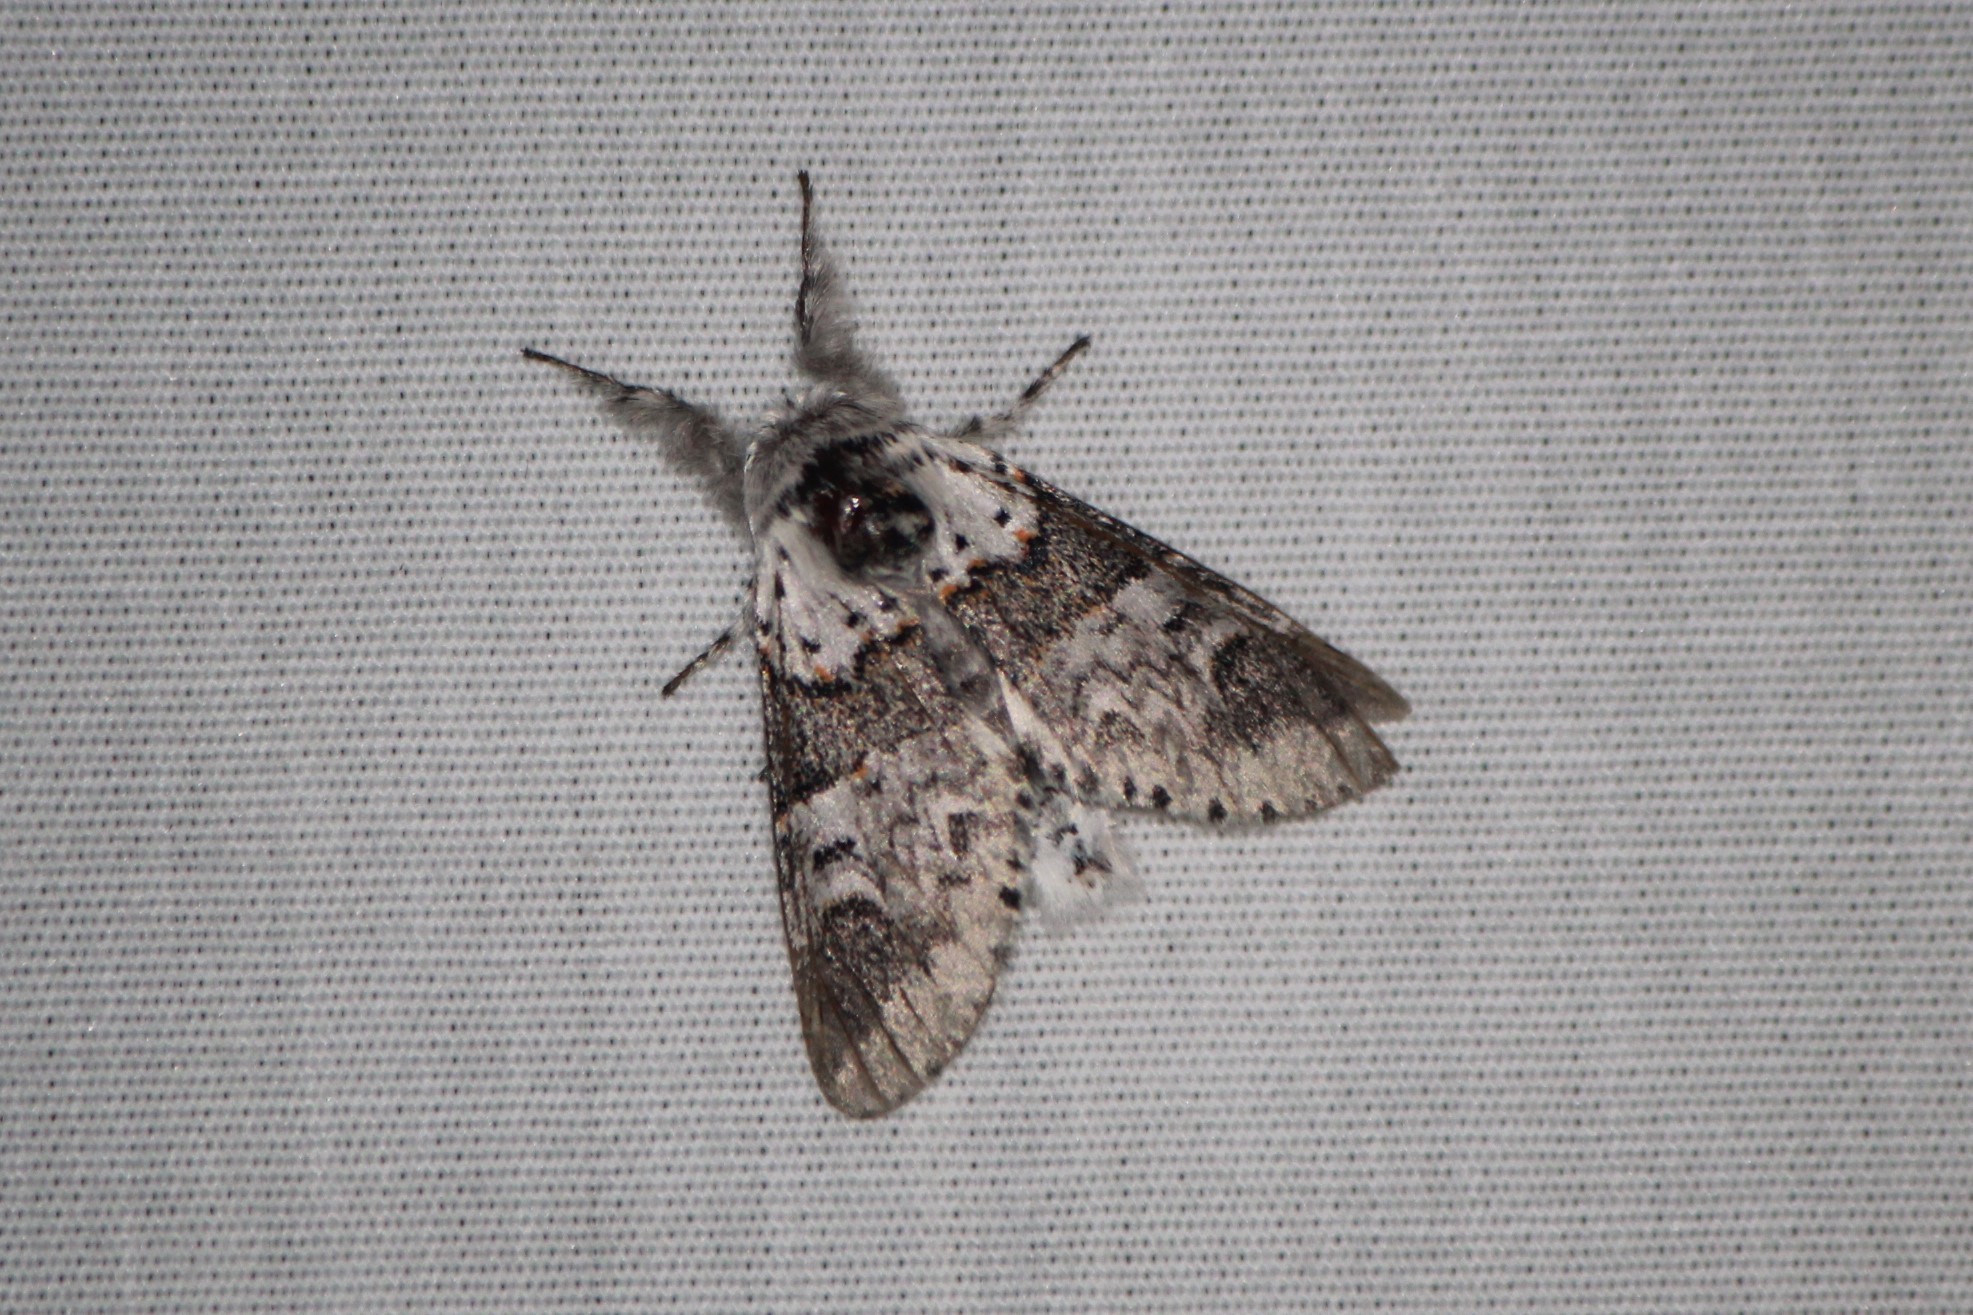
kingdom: Animalia
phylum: Arthropoda
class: Insecta
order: Lepidoptera
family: Notodontidae
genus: Furcula
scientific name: Furcula occidentalis
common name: Western furcula moth
